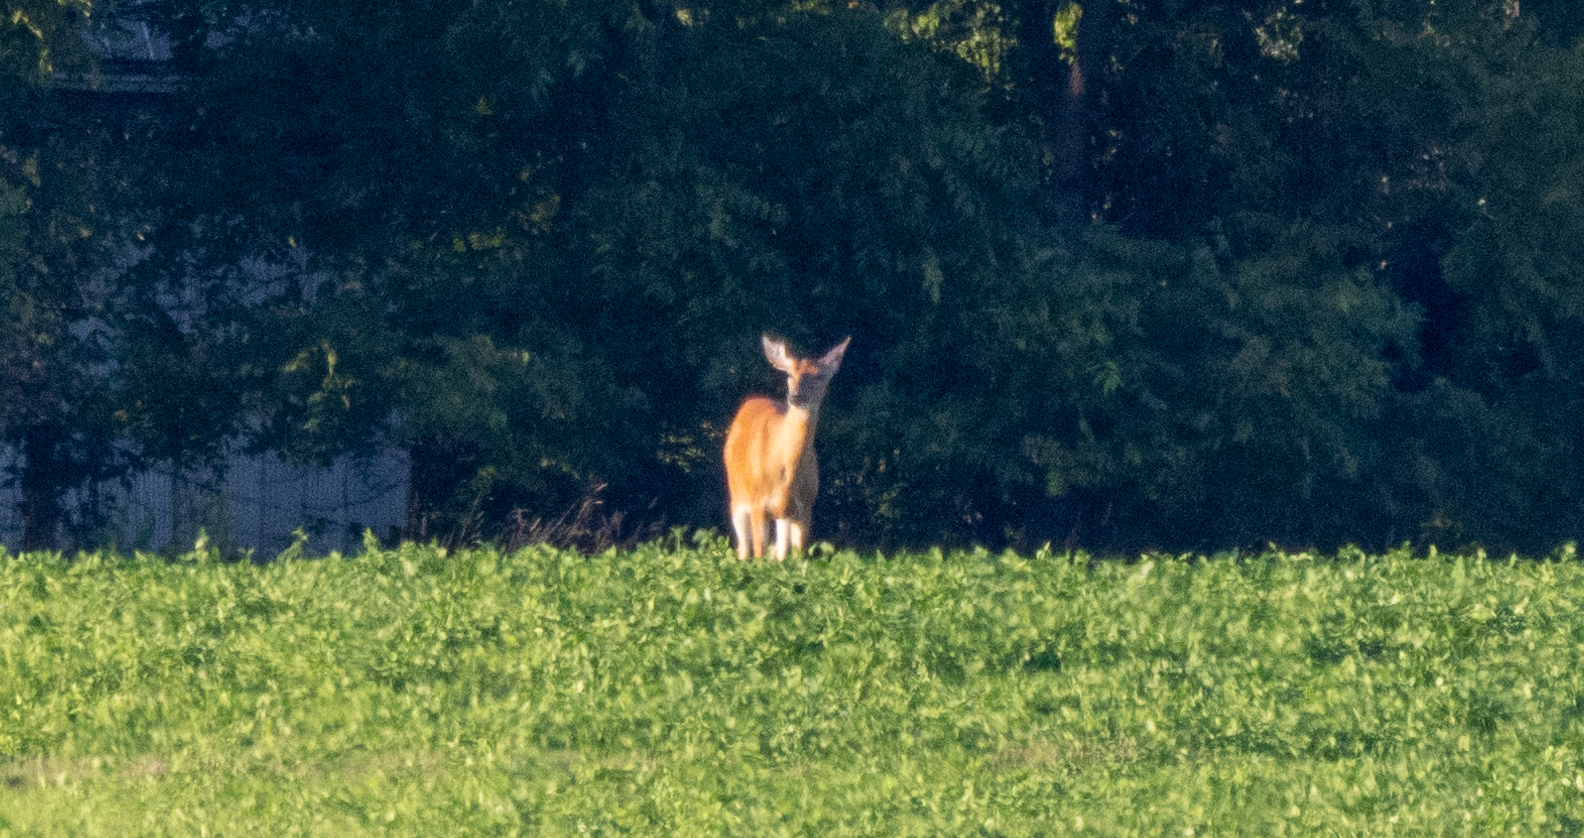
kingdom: Animalia
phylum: Chordata
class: Mammalia
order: Artiodactyla
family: Cervidae
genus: Odocoileus
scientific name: Odocoileus virginianus
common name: White-tailed deer
